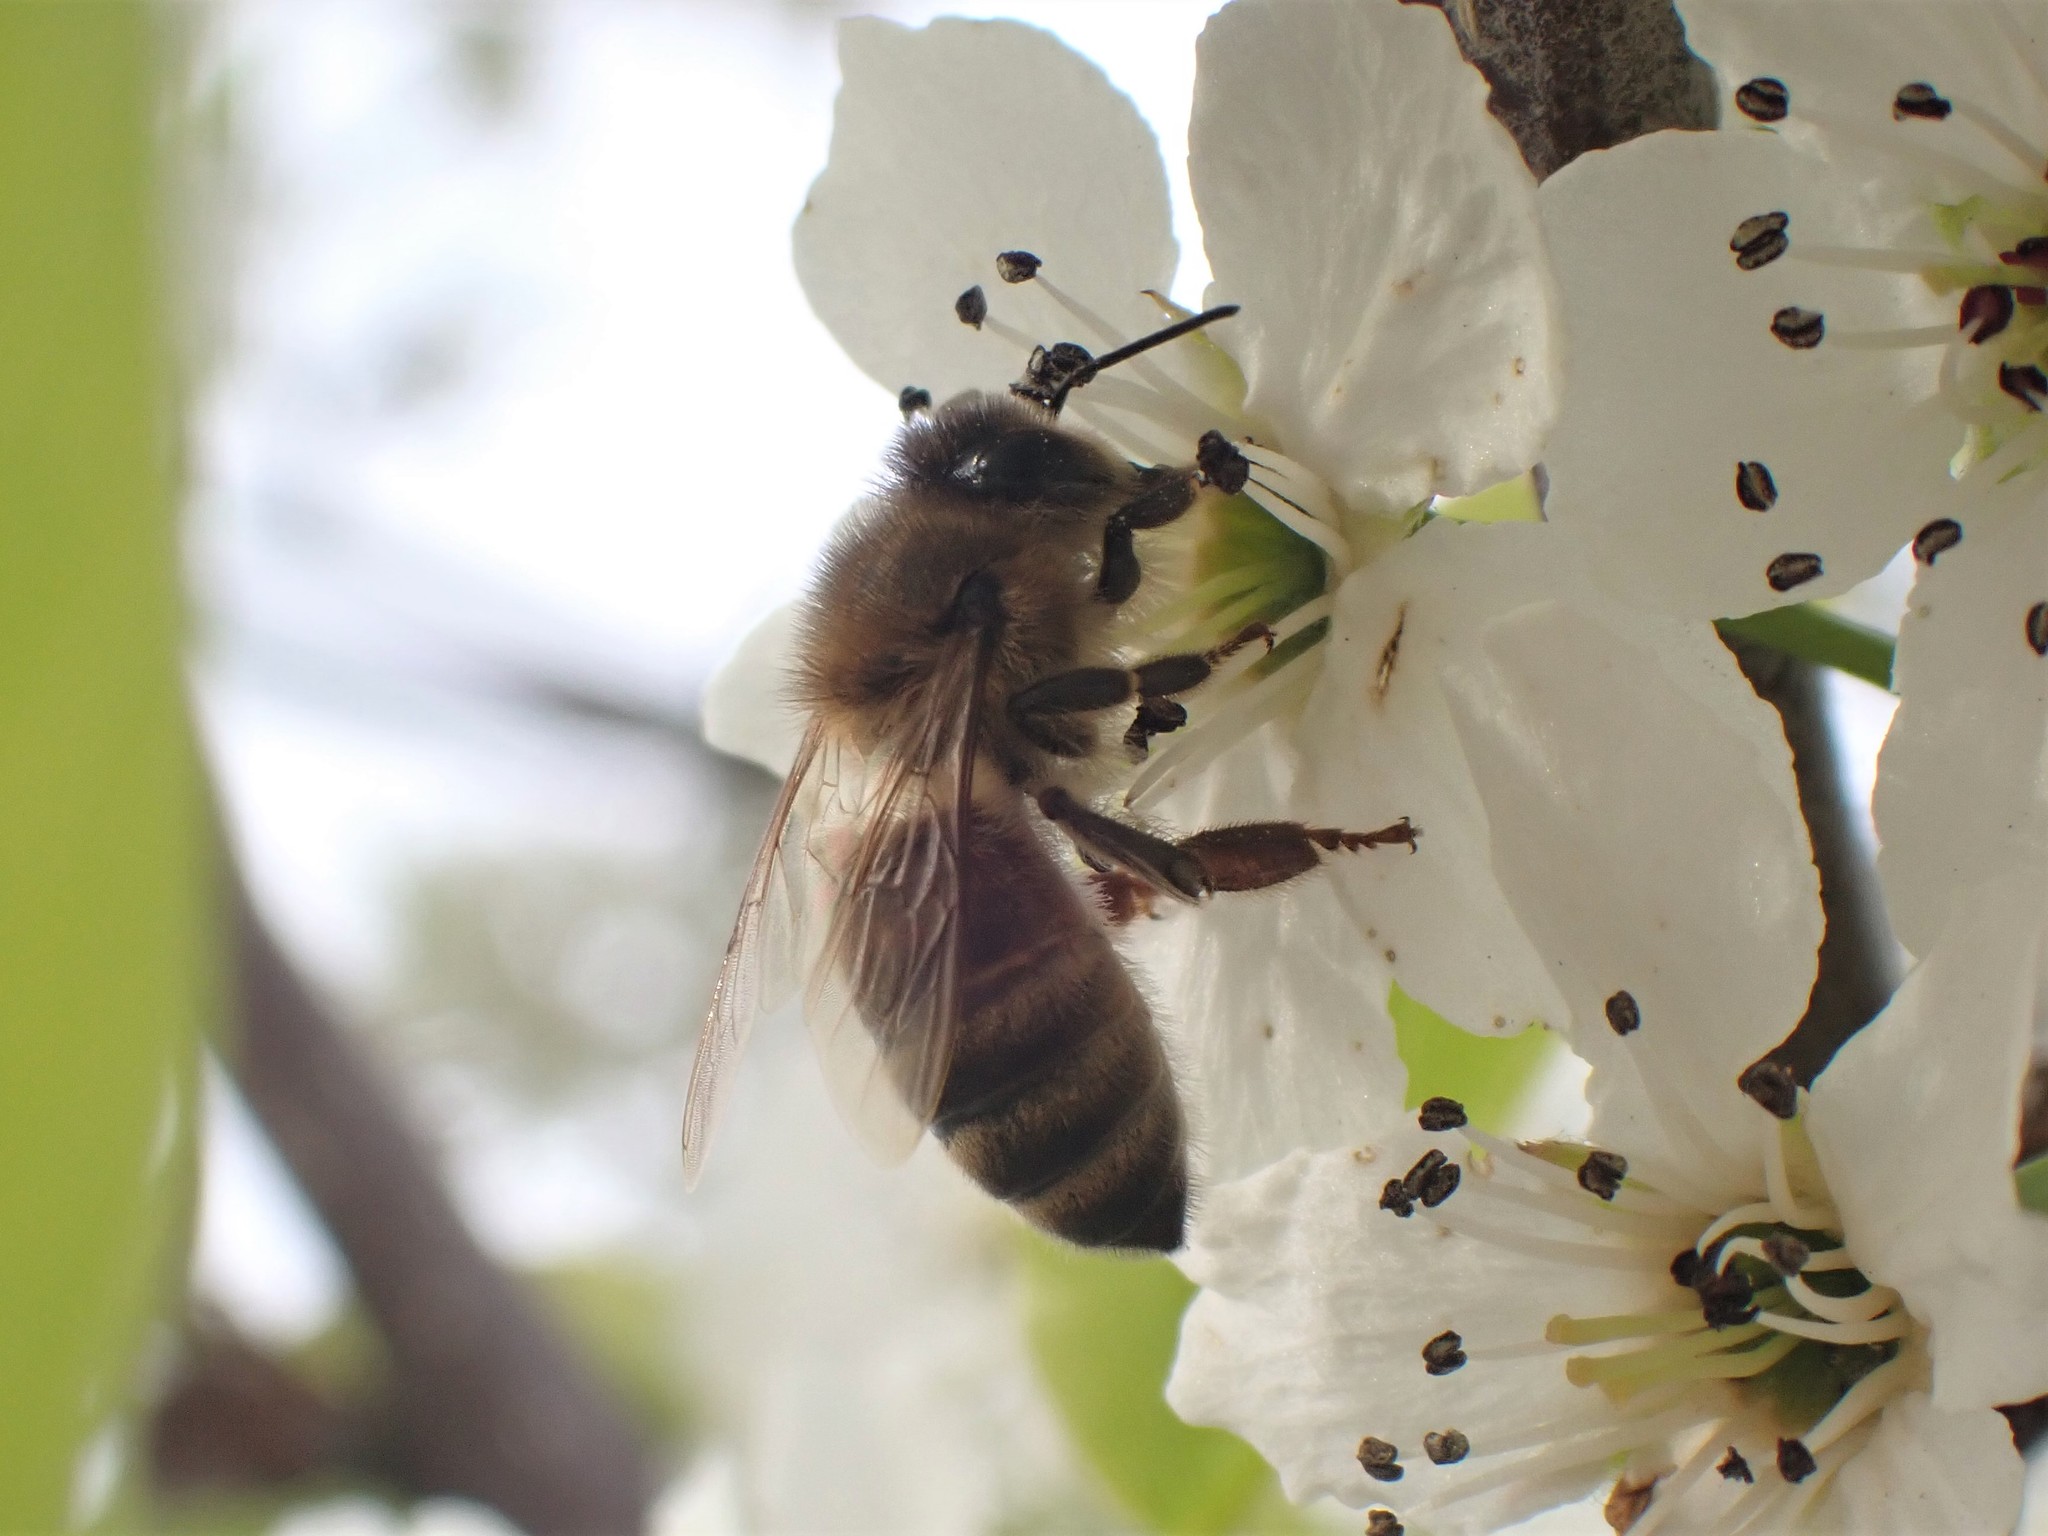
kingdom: Animalia
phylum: Arthropoda
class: Insecta
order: Hymenoptera
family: Apidae
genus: Apis
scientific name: Apis mellifera
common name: Honey bee
